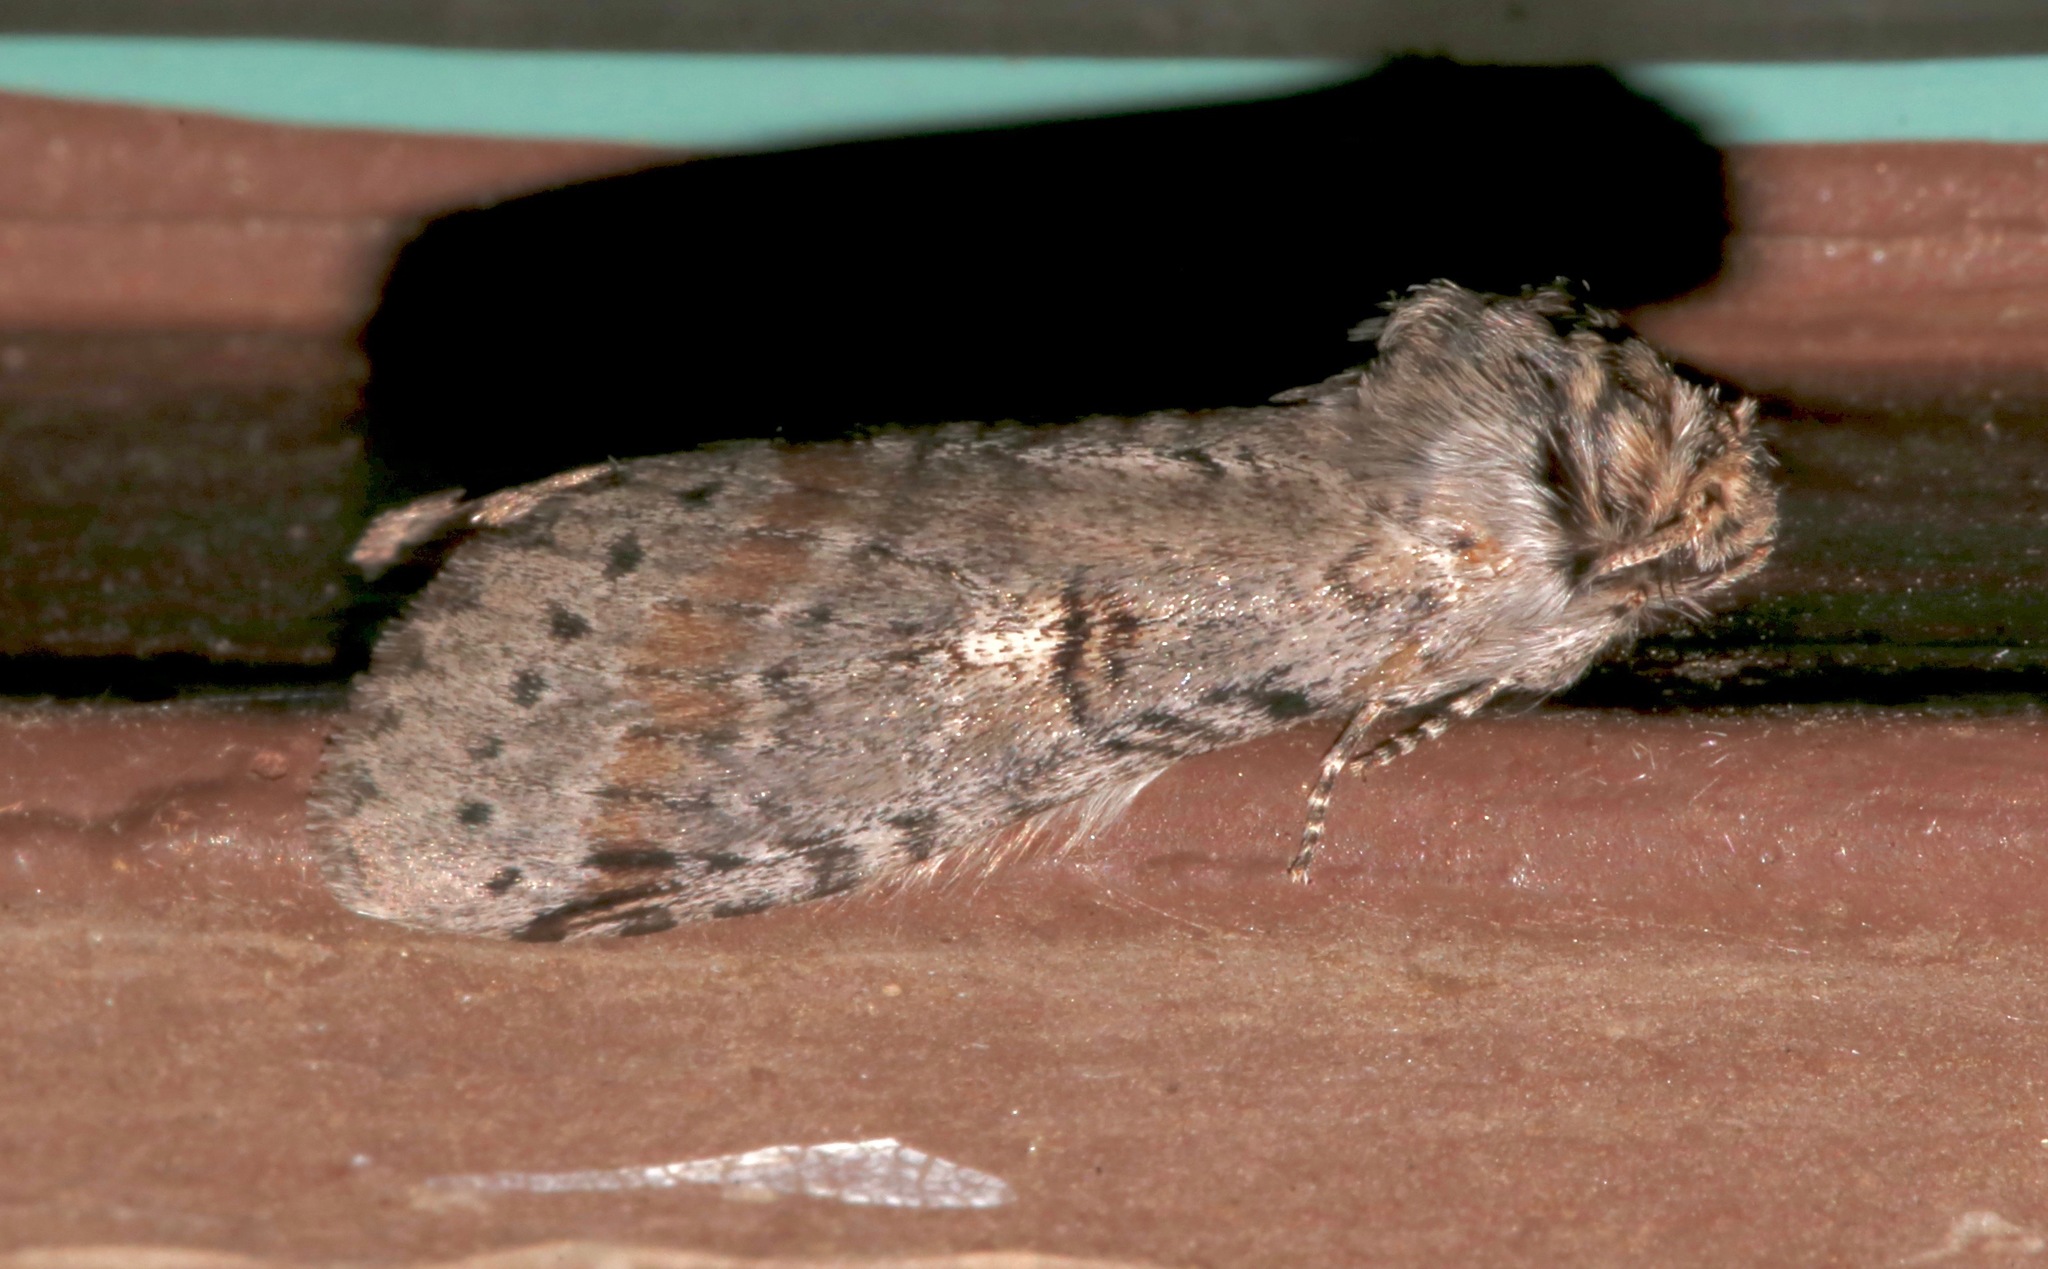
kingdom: Animalia
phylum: Arthropoda
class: Insecta
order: Lepidoptera
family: Notodontidae
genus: Scevesia
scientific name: Scevesia angustiora
